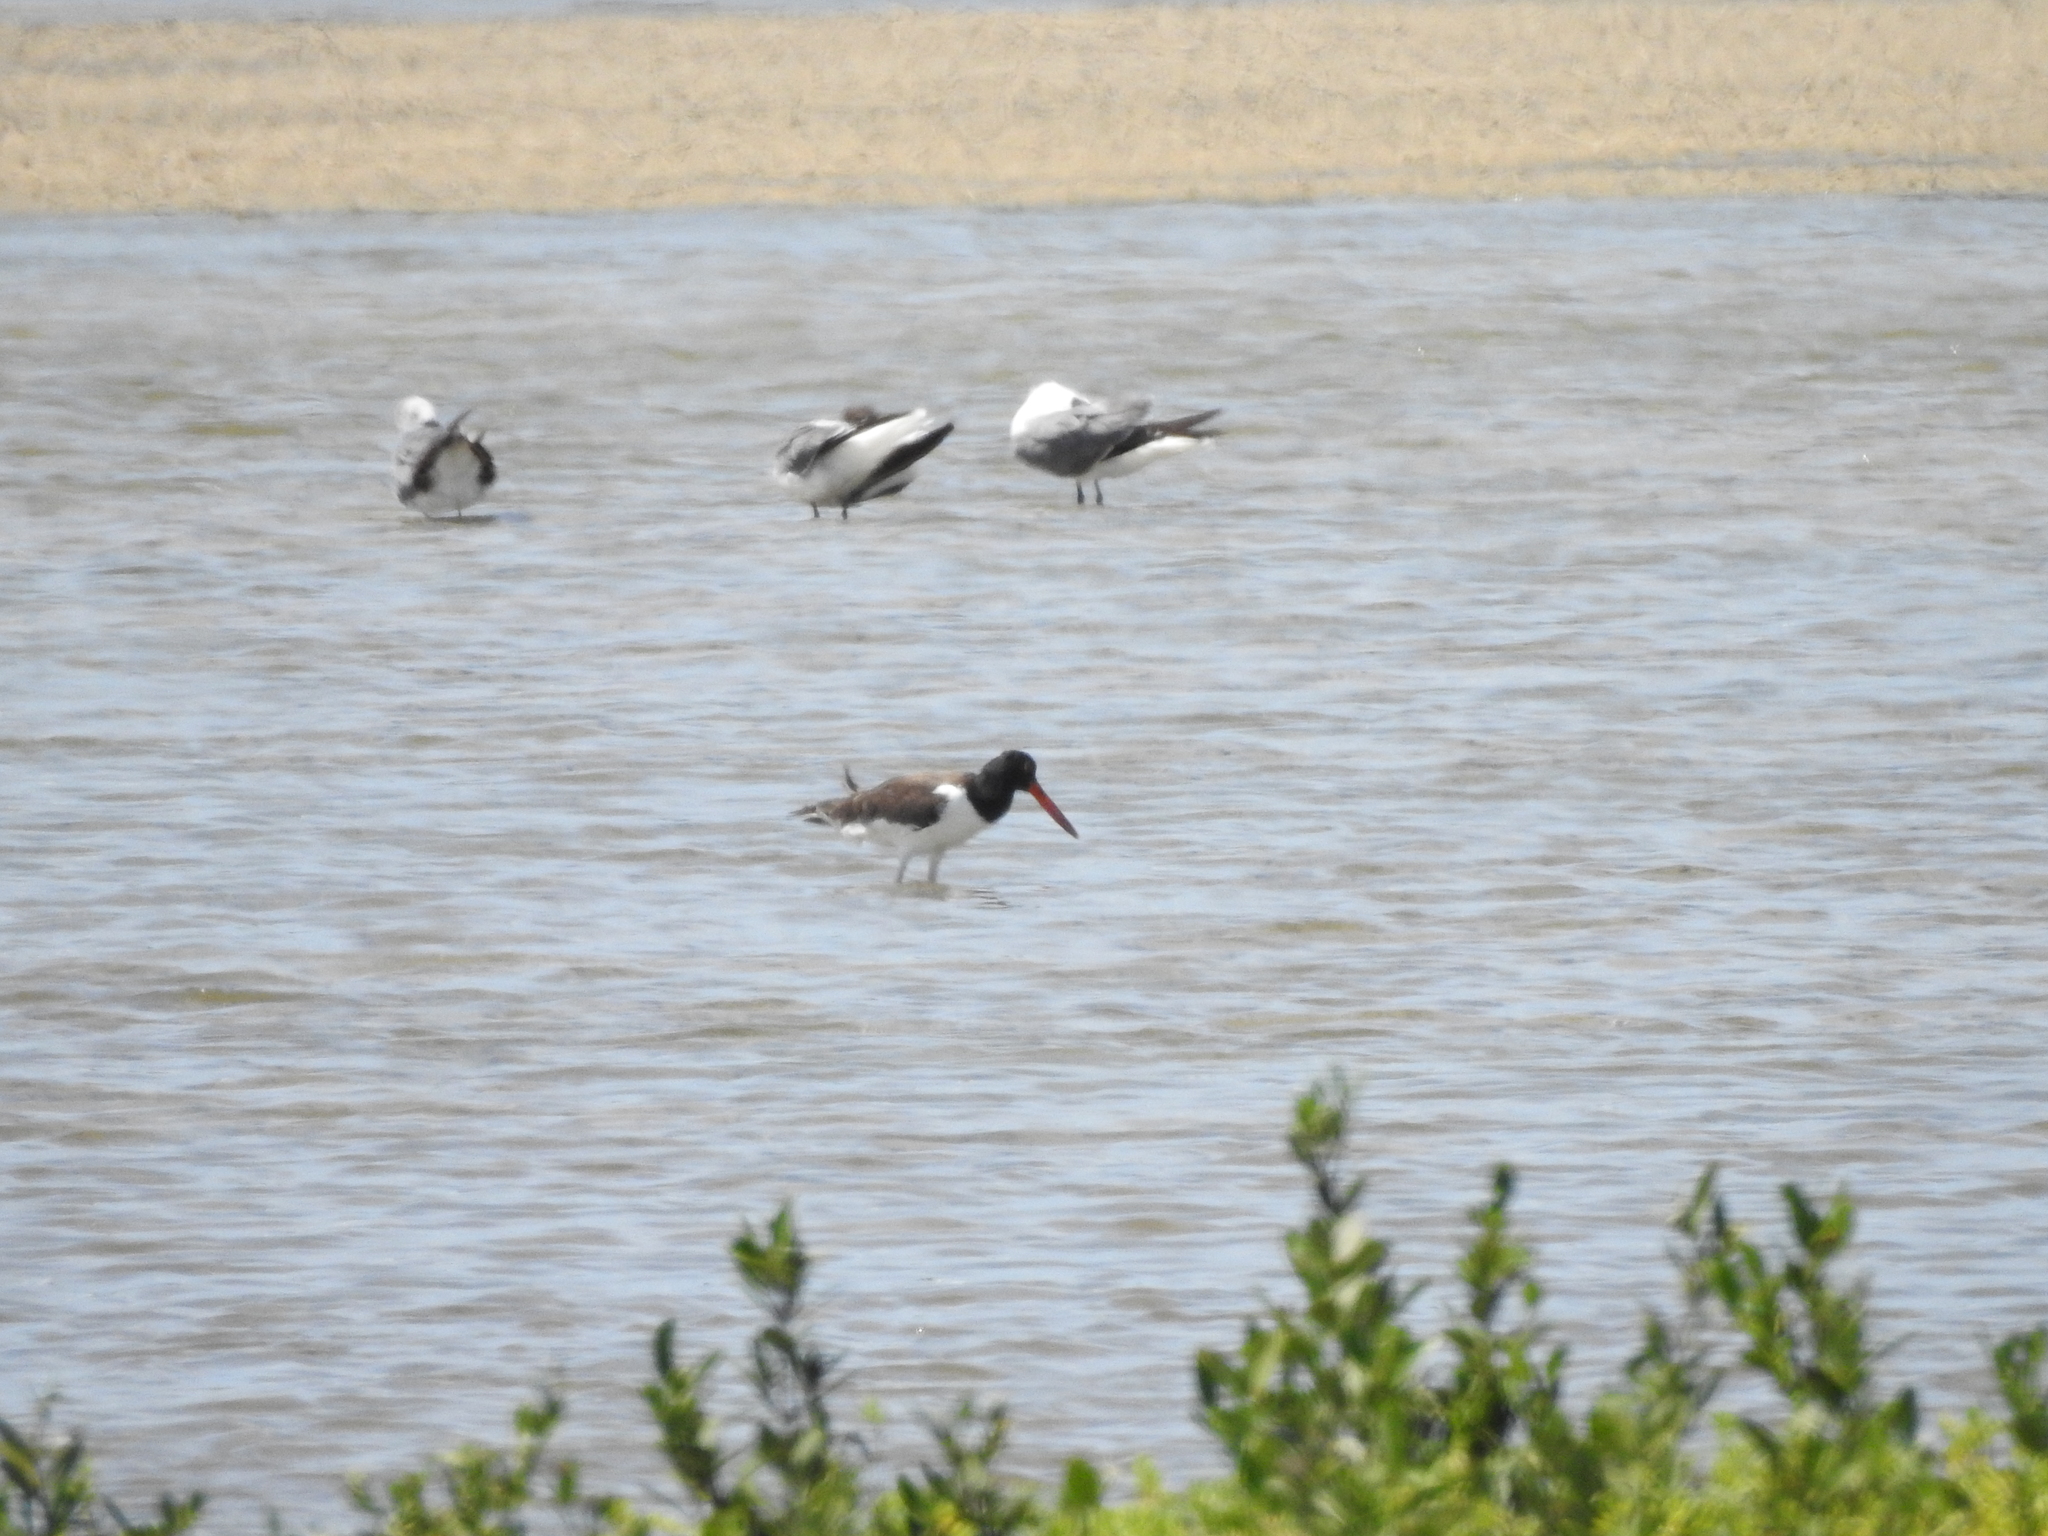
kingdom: Animalia
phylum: Chordata
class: Aves
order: Charadriiformes
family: Haematopodidae
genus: Haematopus
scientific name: Haematopus palliatus
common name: American oystercatcher
